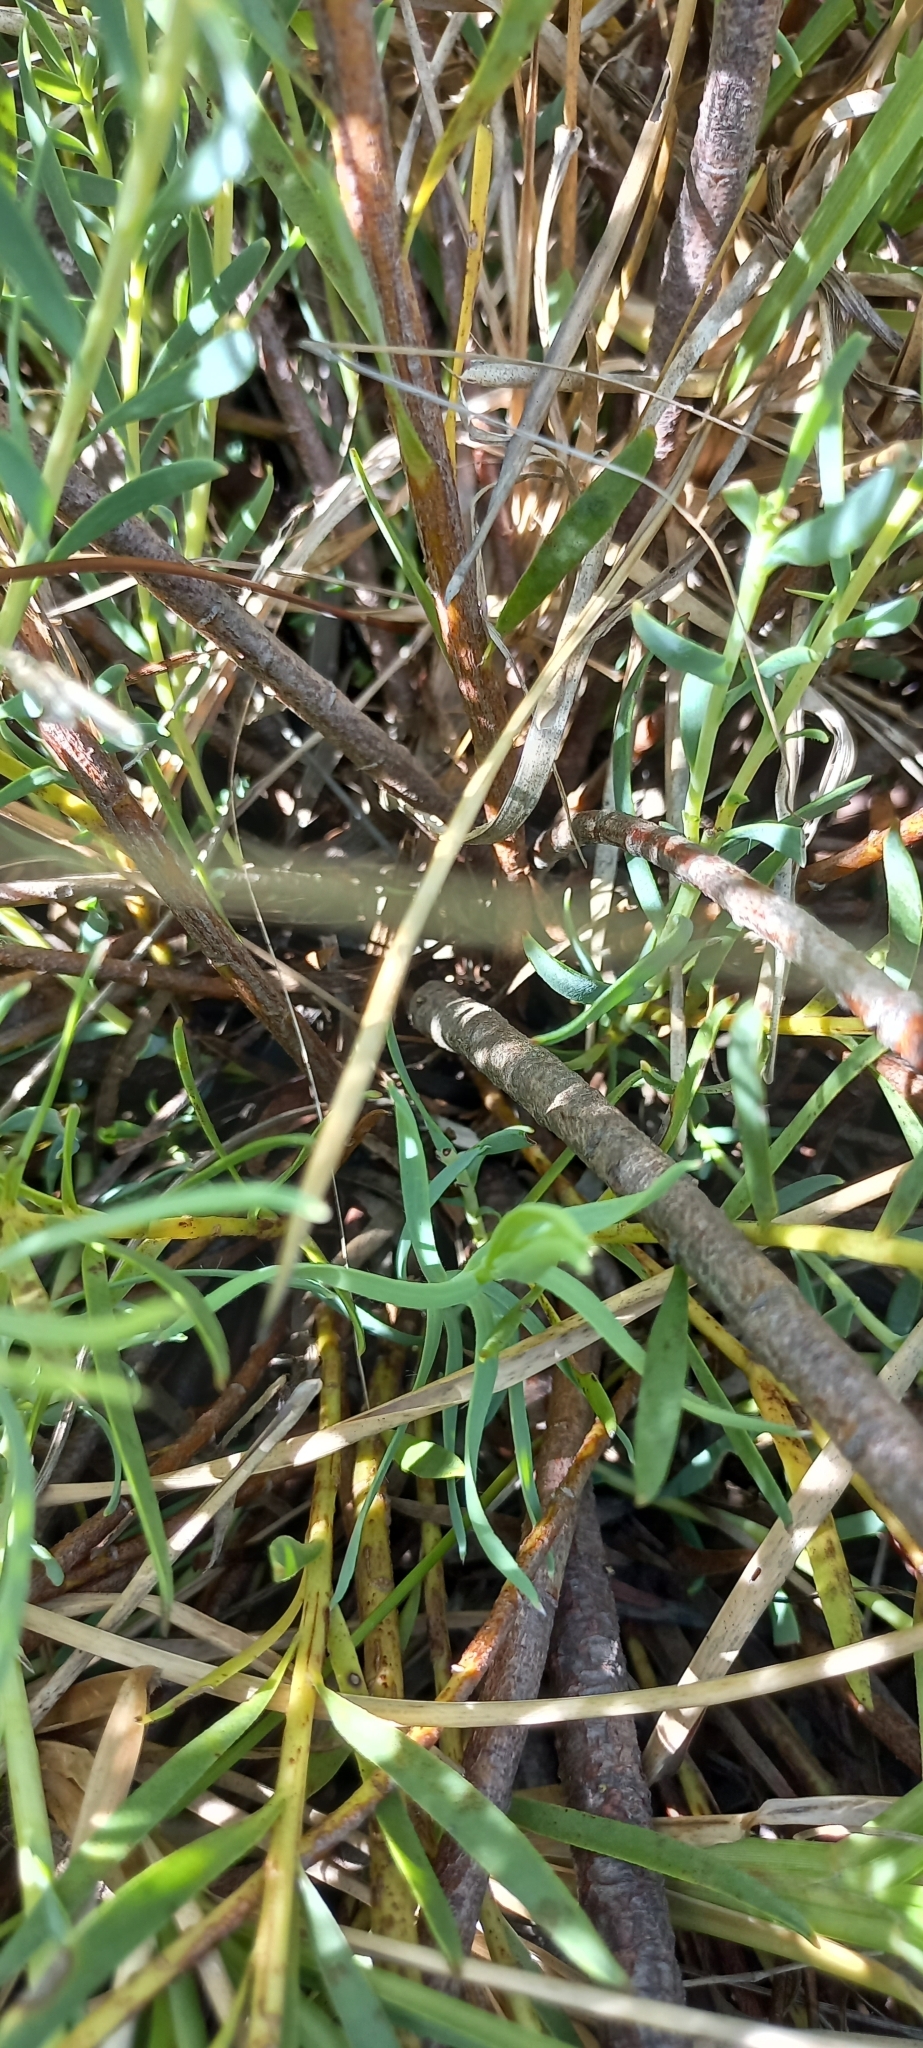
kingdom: Plantae
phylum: Tracheophyta
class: Magnoliopsida
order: Proteales
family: Proteaceae
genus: Leucadendron
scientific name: Leucadendron salignum
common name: Common sunshine conebush
